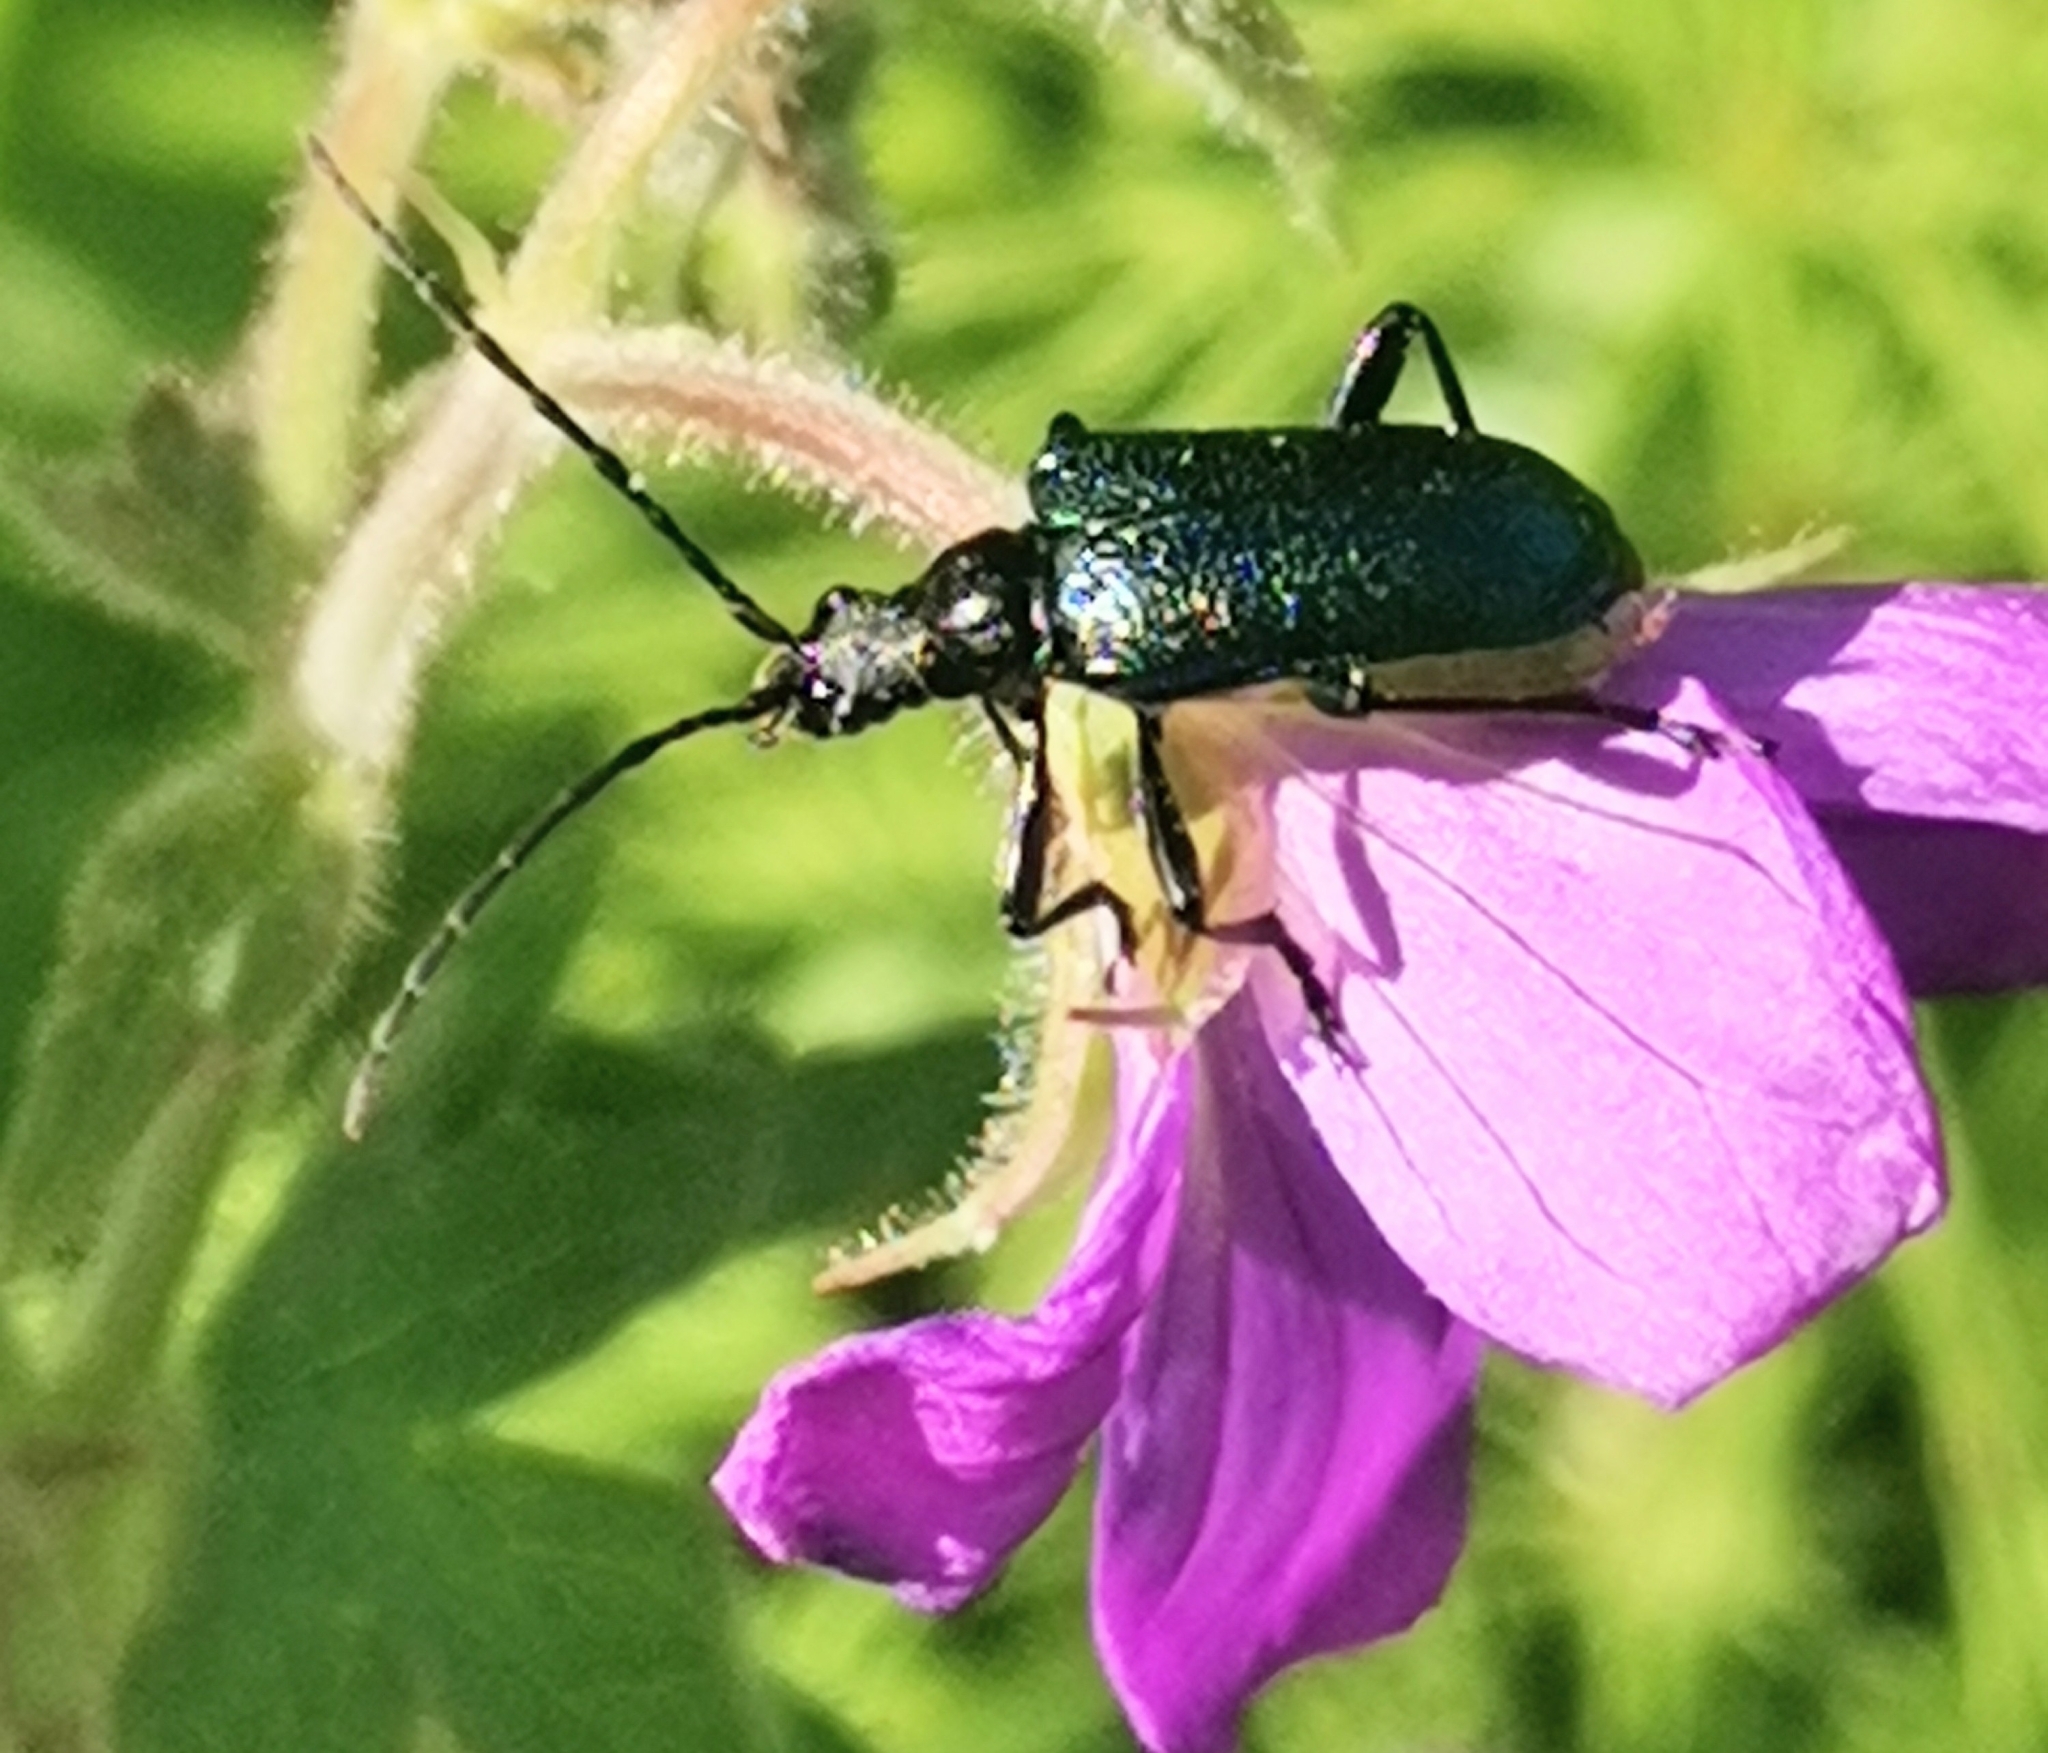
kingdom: Animalia
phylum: Arthropoda
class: Insecta
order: Coleoptera
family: Cerambycidae
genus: Gaurotes
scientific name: Gaurotes virginea
